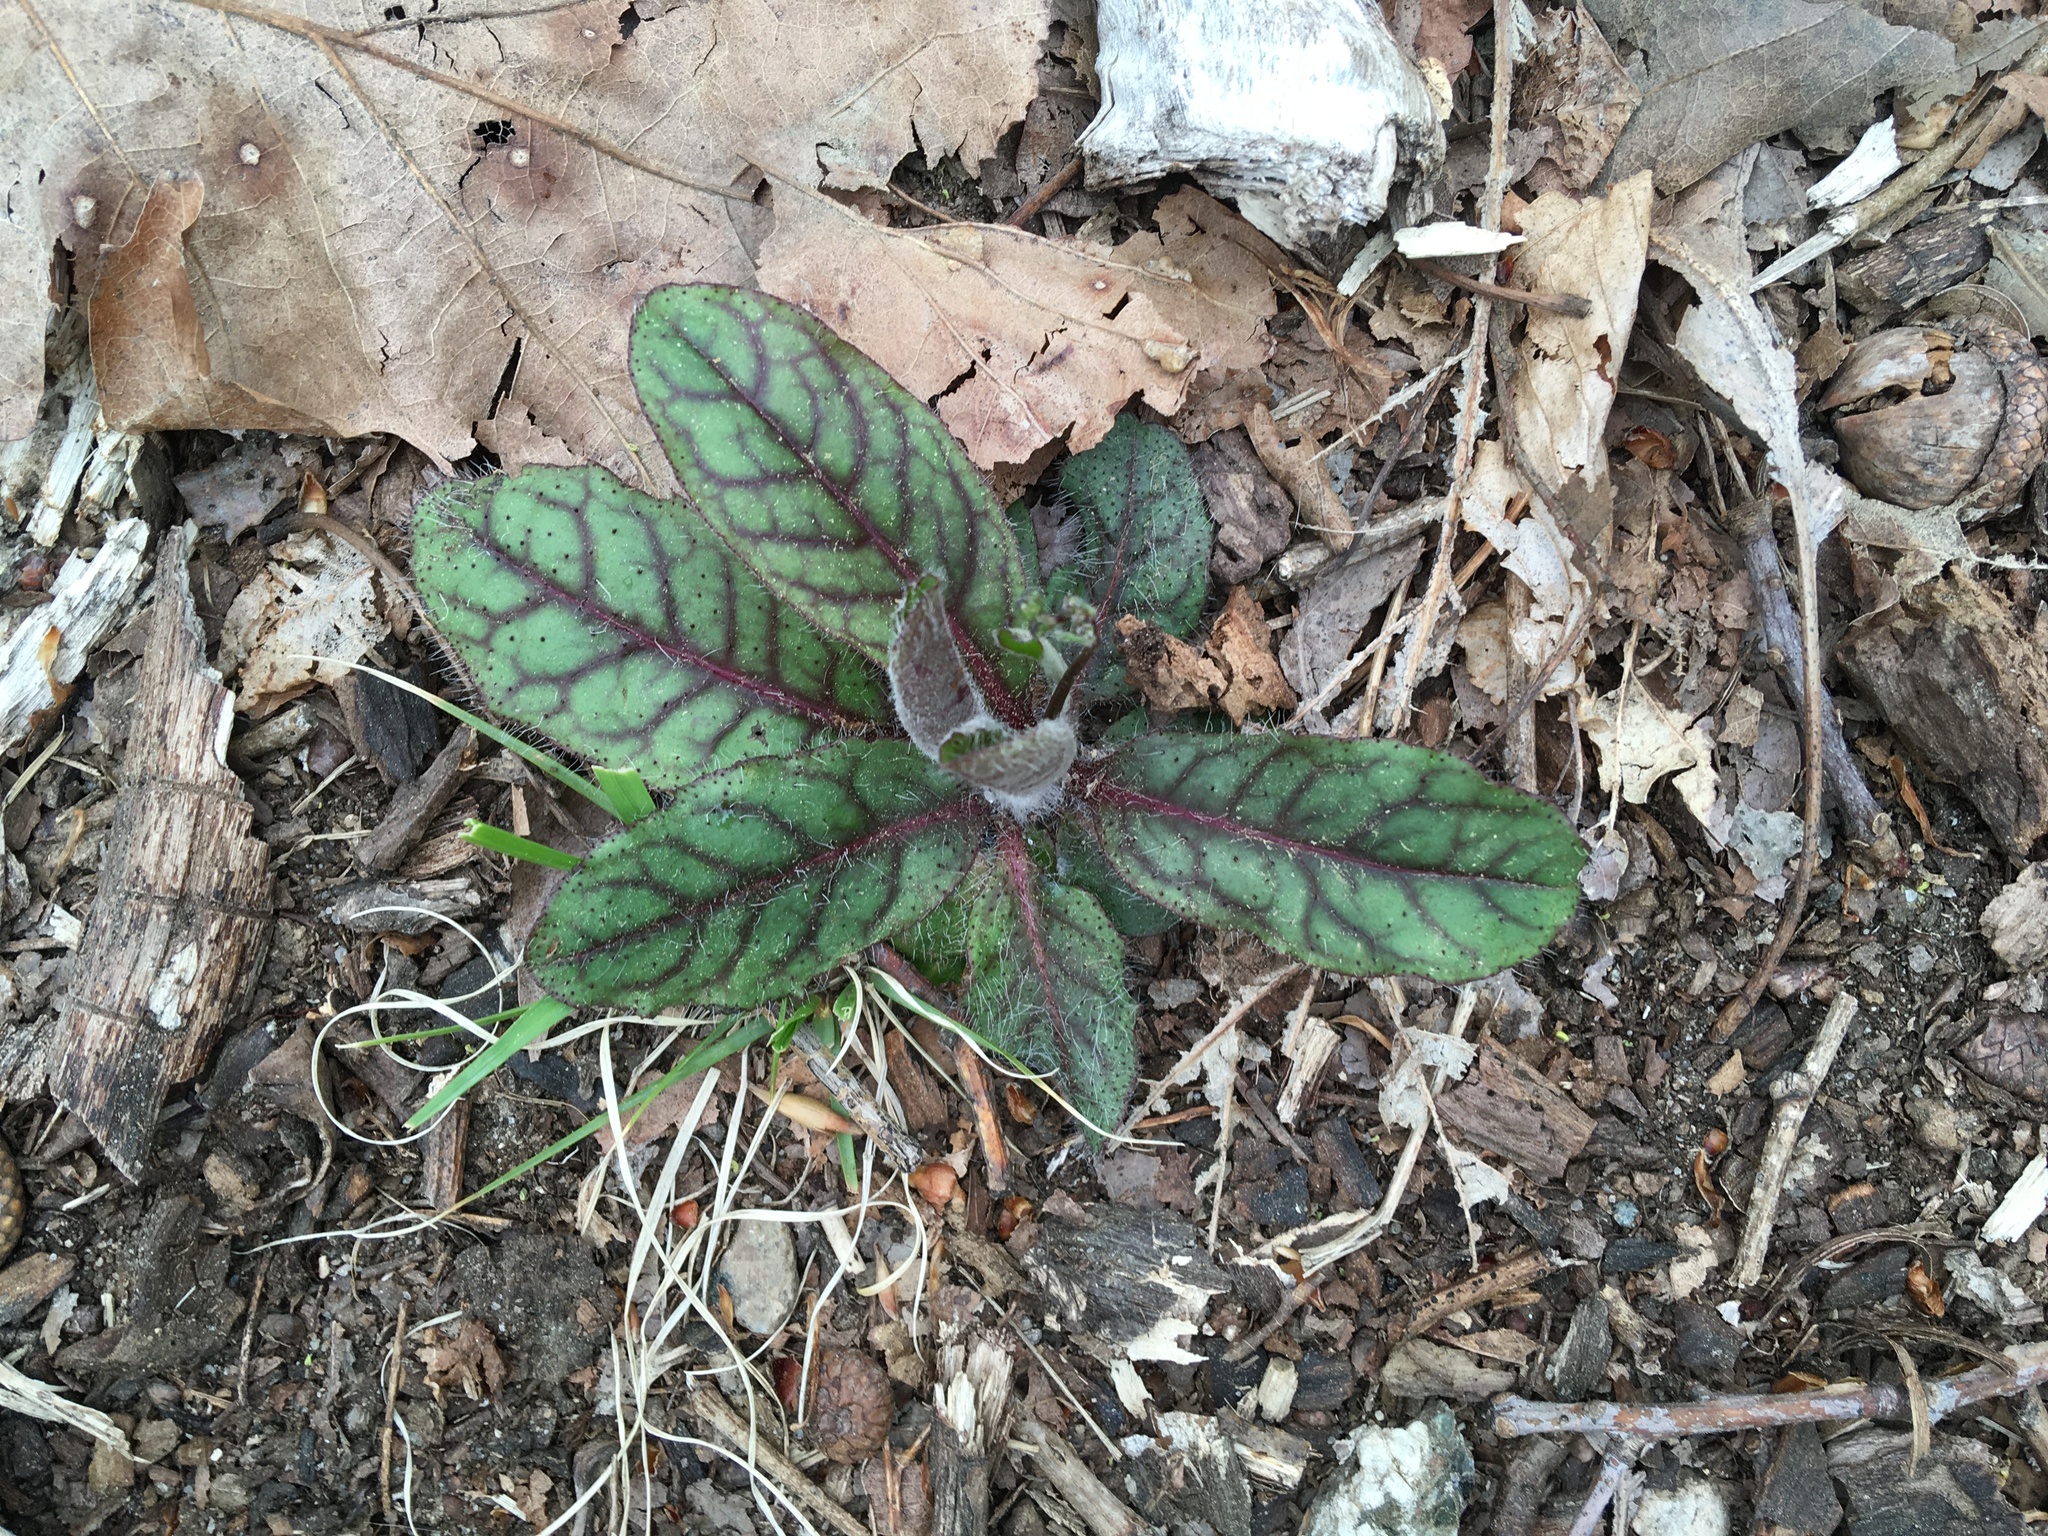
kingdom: Plantae
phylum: Tracheophyta
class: Magnoliopsida
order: Asterales
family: Asteraceae
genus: Hieracium
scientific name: Hieracium venosum
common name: Rattlesnake hawkweed
